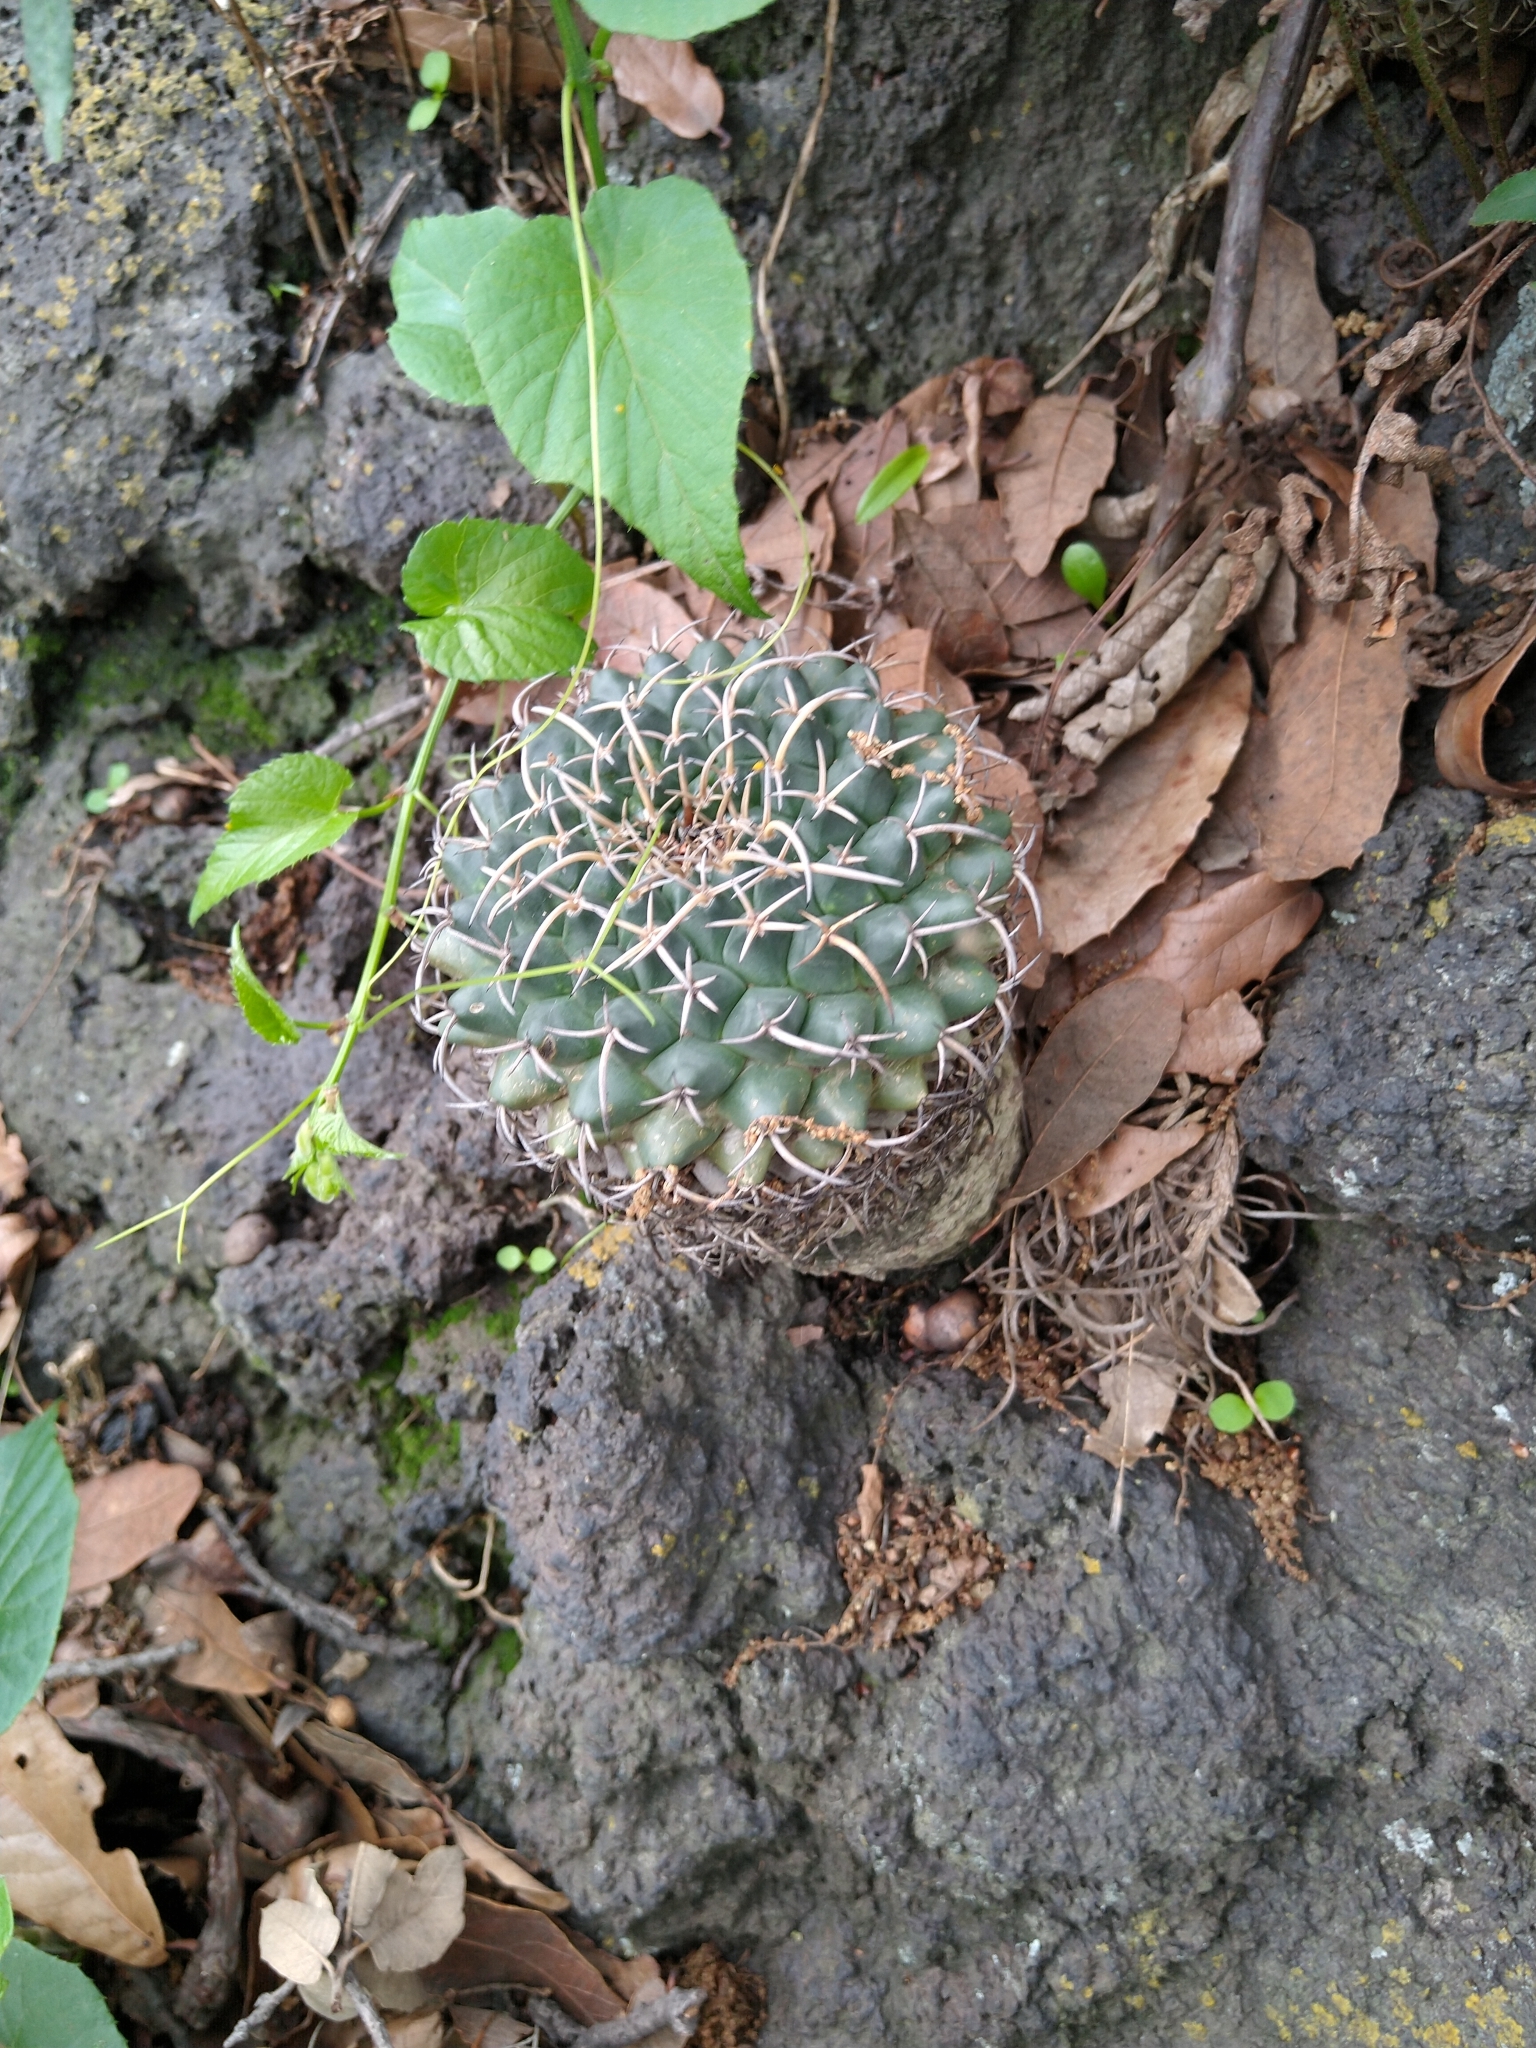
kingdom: Plantae
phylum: Tracheophyta
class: Magnoliopsida
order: Caryophyllales
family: Cactaceae
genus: Mammillaria
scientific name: Mammillaria magnimamma
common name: Mexican pincushion
